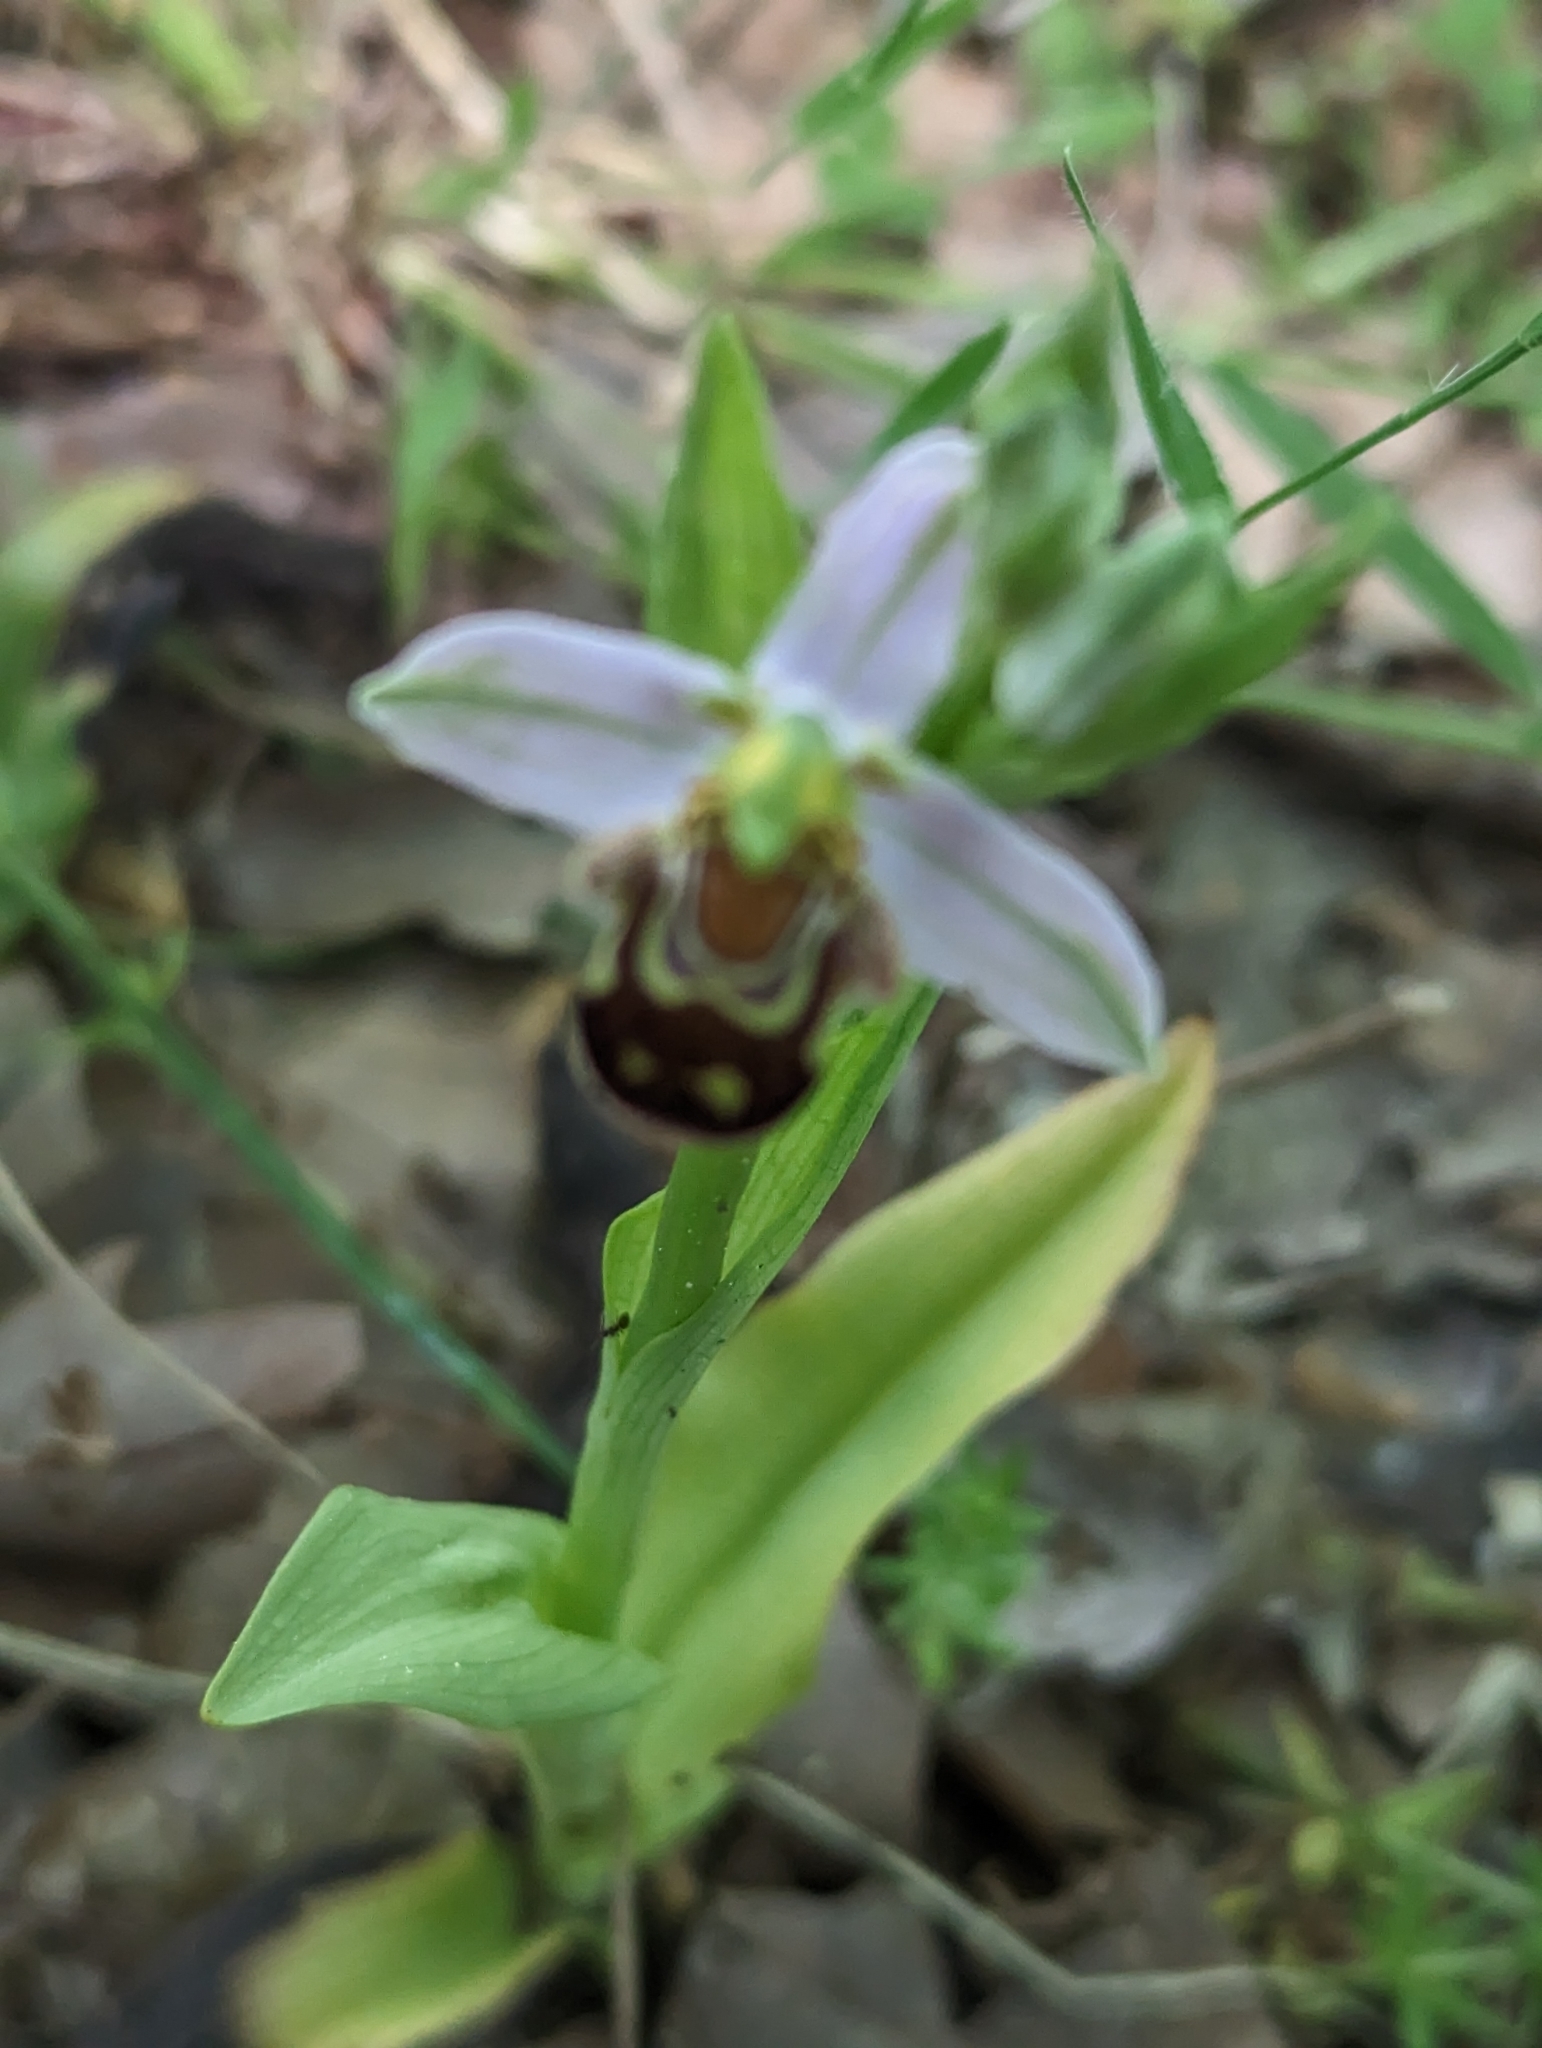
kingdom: Plantae
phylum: Tracheophyta
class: Liliopsida
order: Asparagales
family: Orchidaceae
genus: Ophrys
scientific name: Ophrys apifera
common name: Bee orchid
